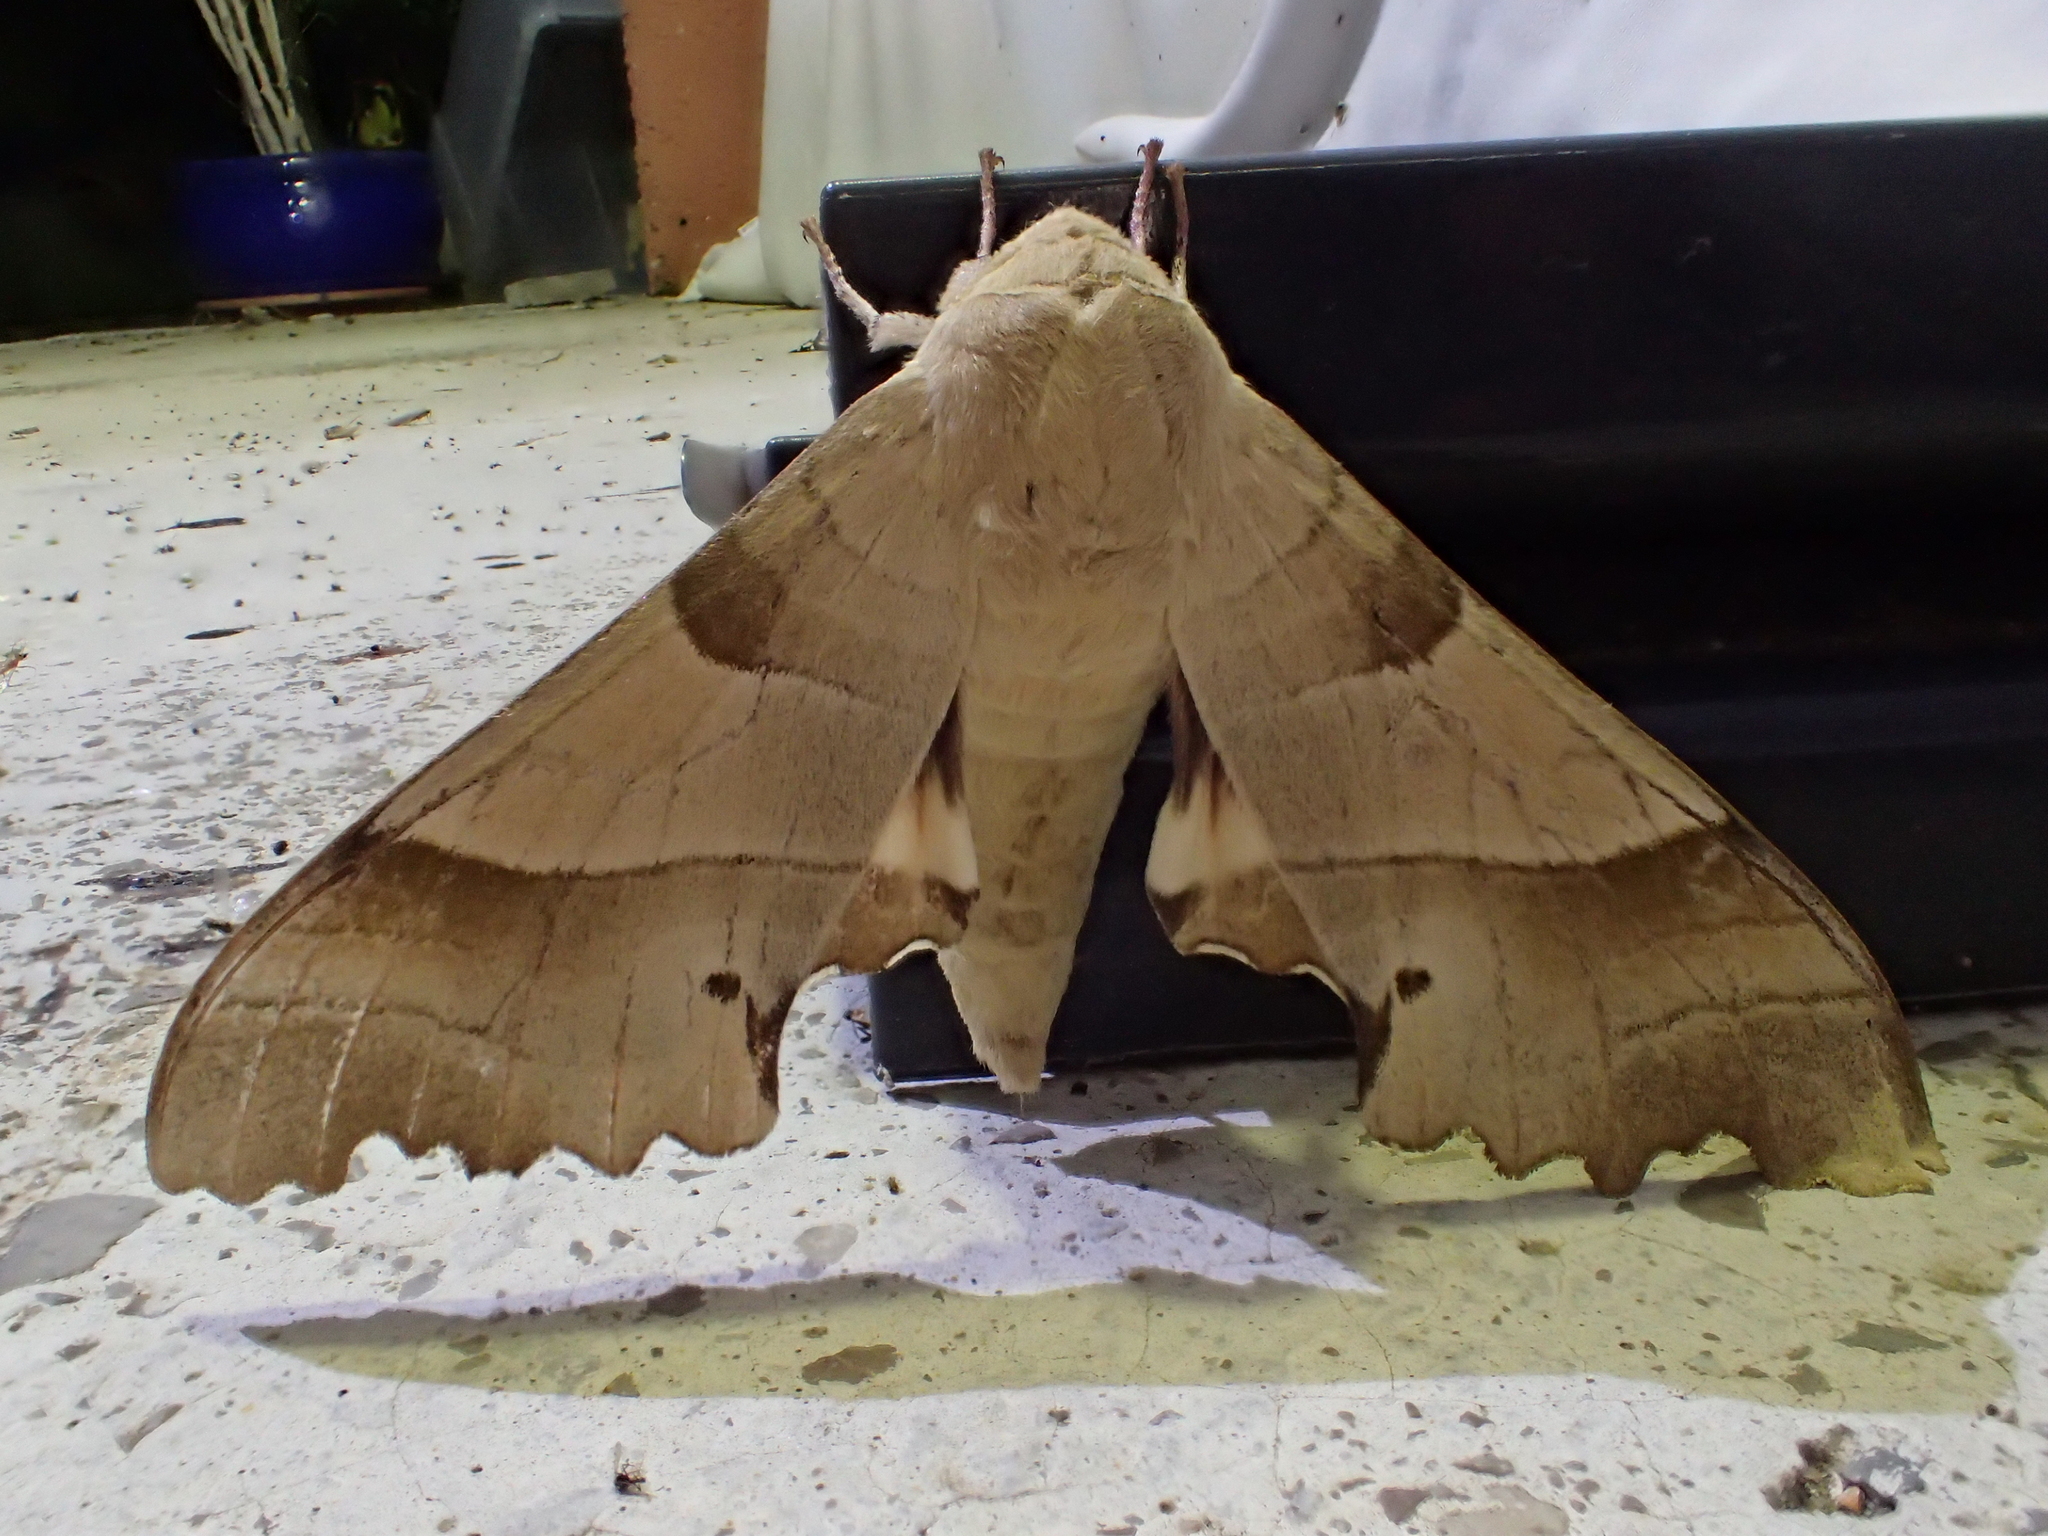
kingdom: Animalia
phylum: Arthropoda
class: Insecta
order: Lepidoptera
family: Sphingidae
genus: Marumba
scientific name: Marumba quercus
